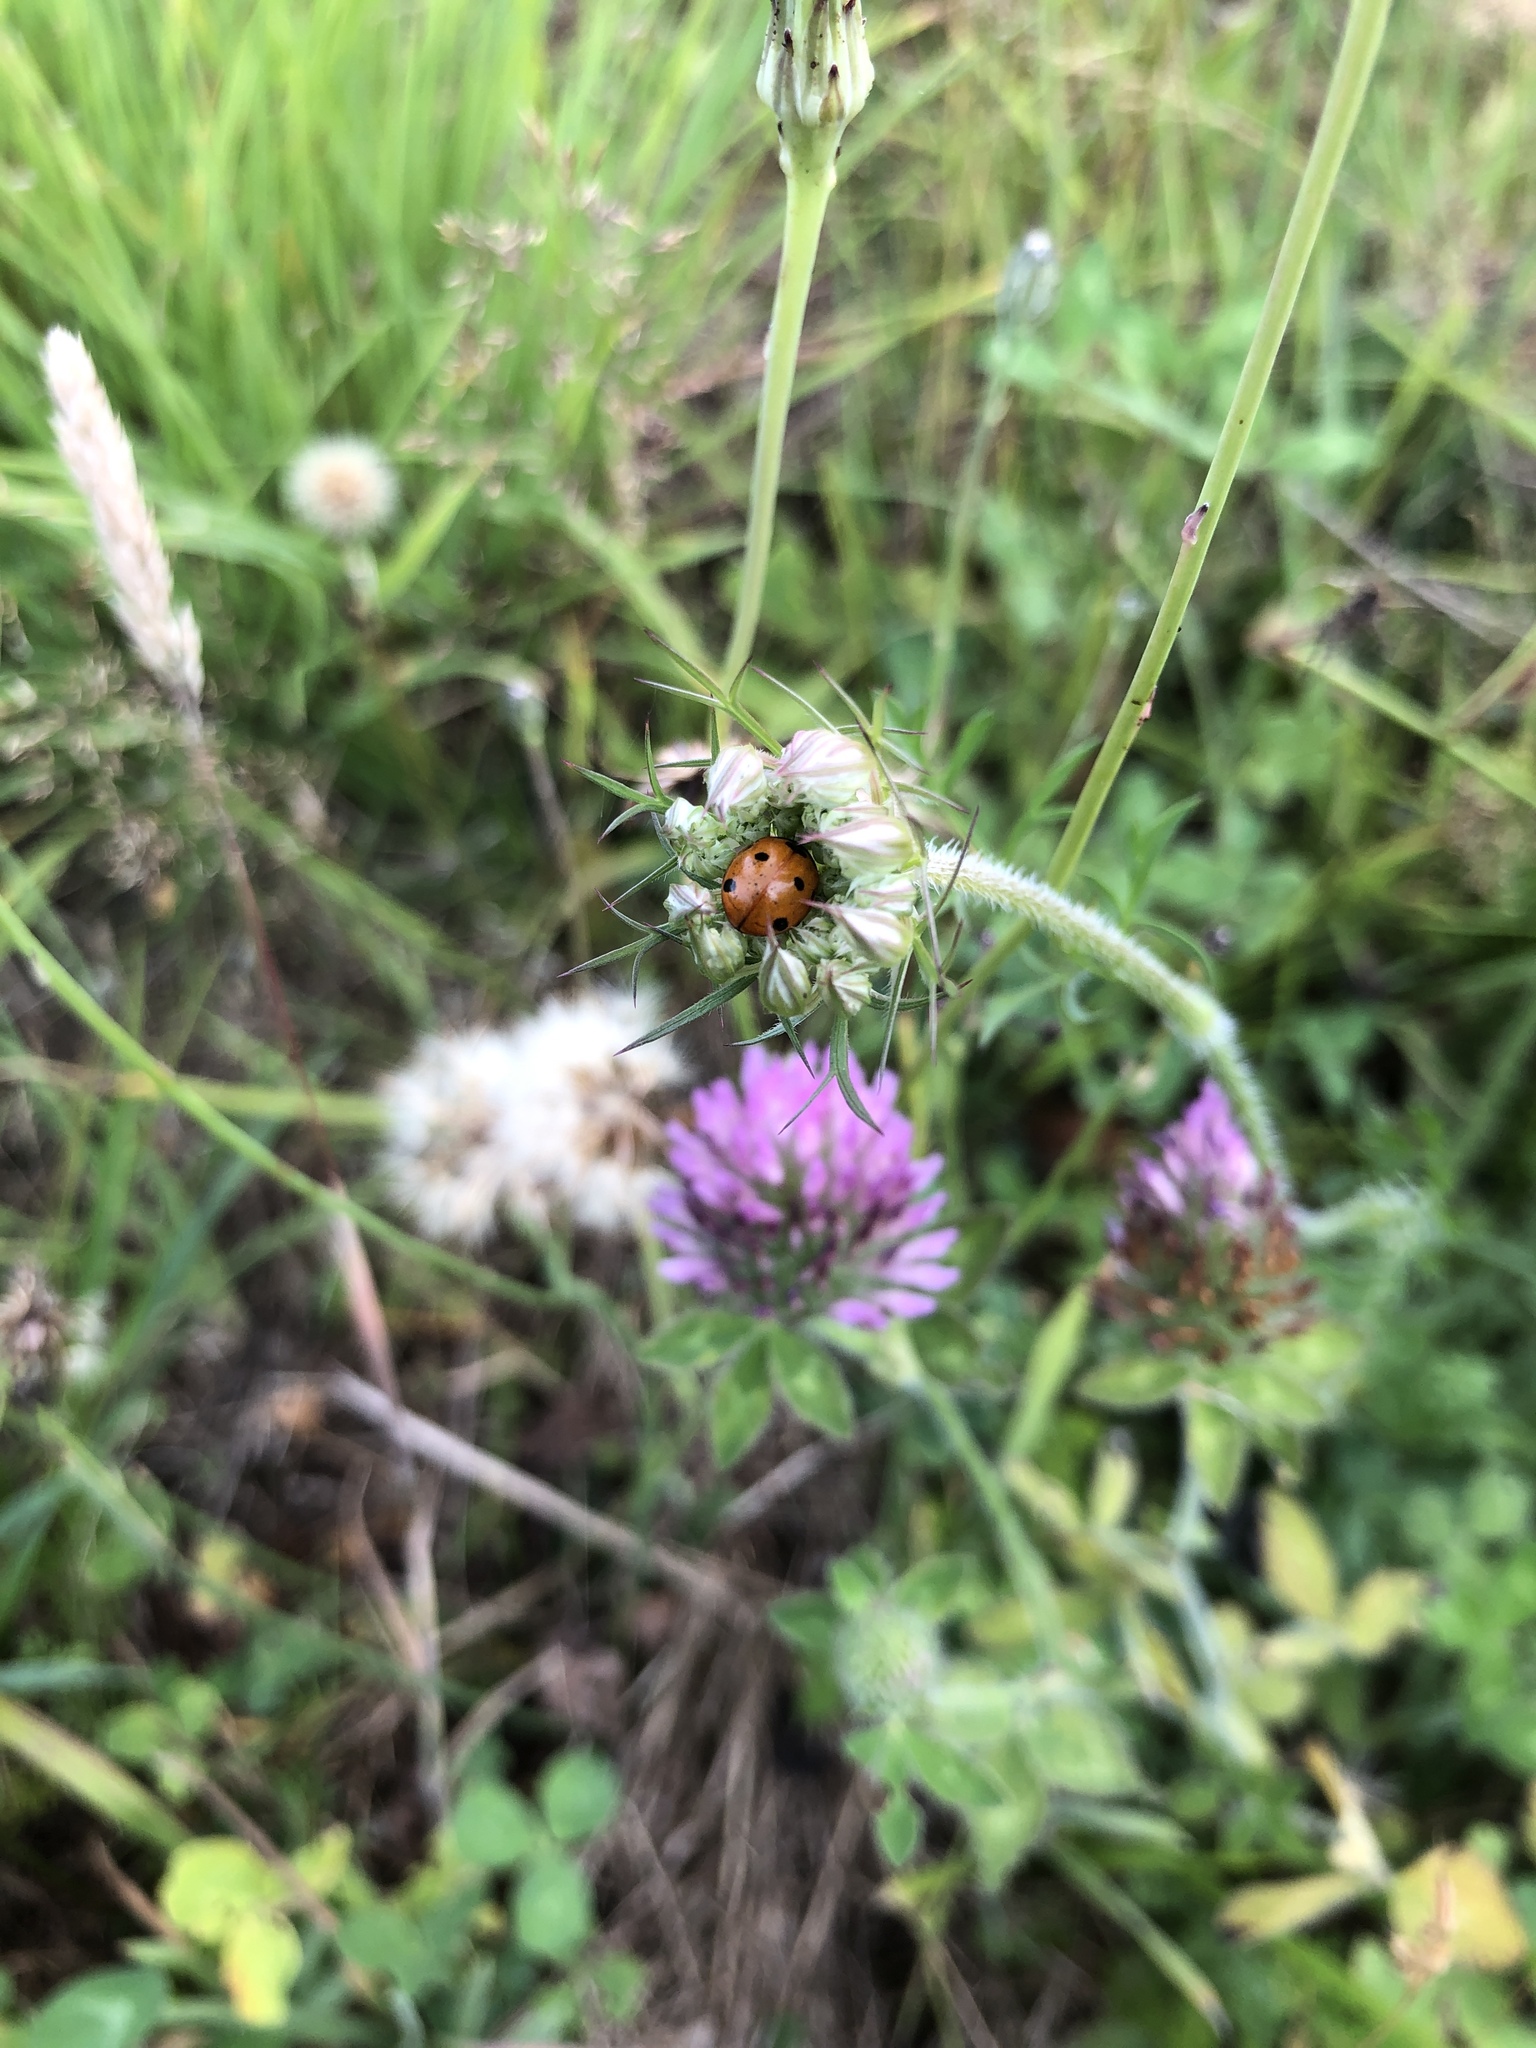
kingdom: Animalia
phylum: Arthropoda
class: Insecta
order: Coleoptera
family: Coccinellidae
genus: Coccinella
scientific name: Coccinella septempunctata
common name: Sevenspotted lady beetle
